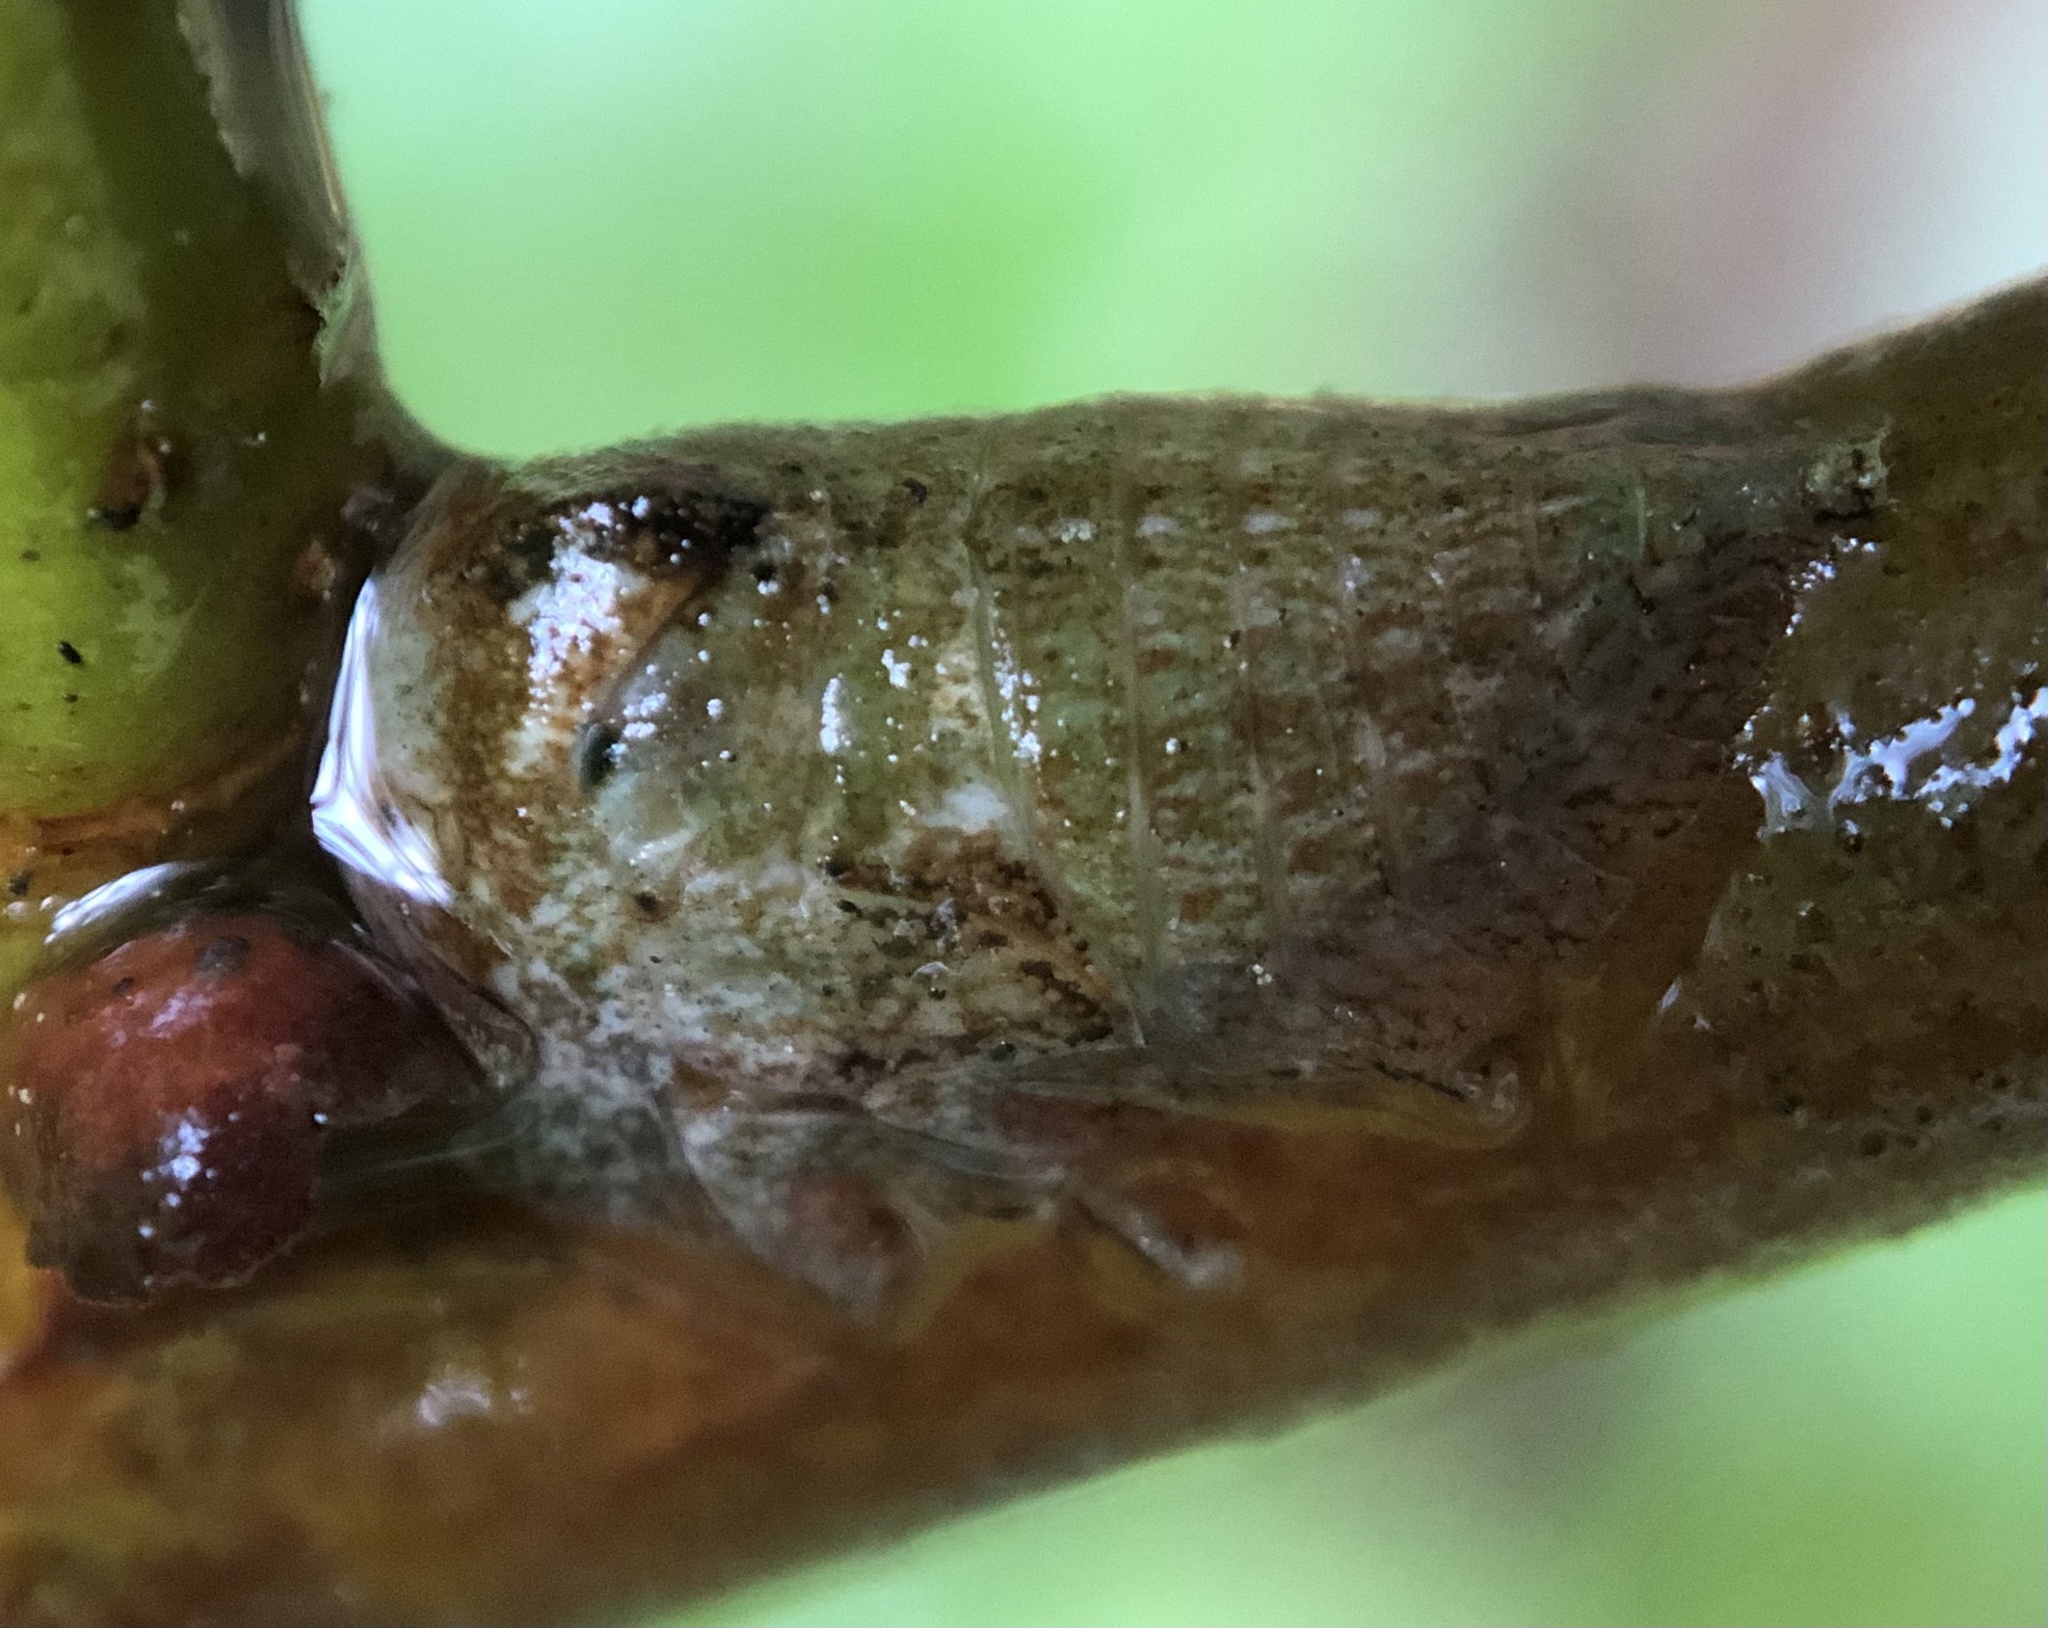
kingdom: Animalia
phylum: Arthropoda
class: Insecta
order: Hemiptera
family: Membracidae
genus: Hebetica
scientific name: Hebetica
